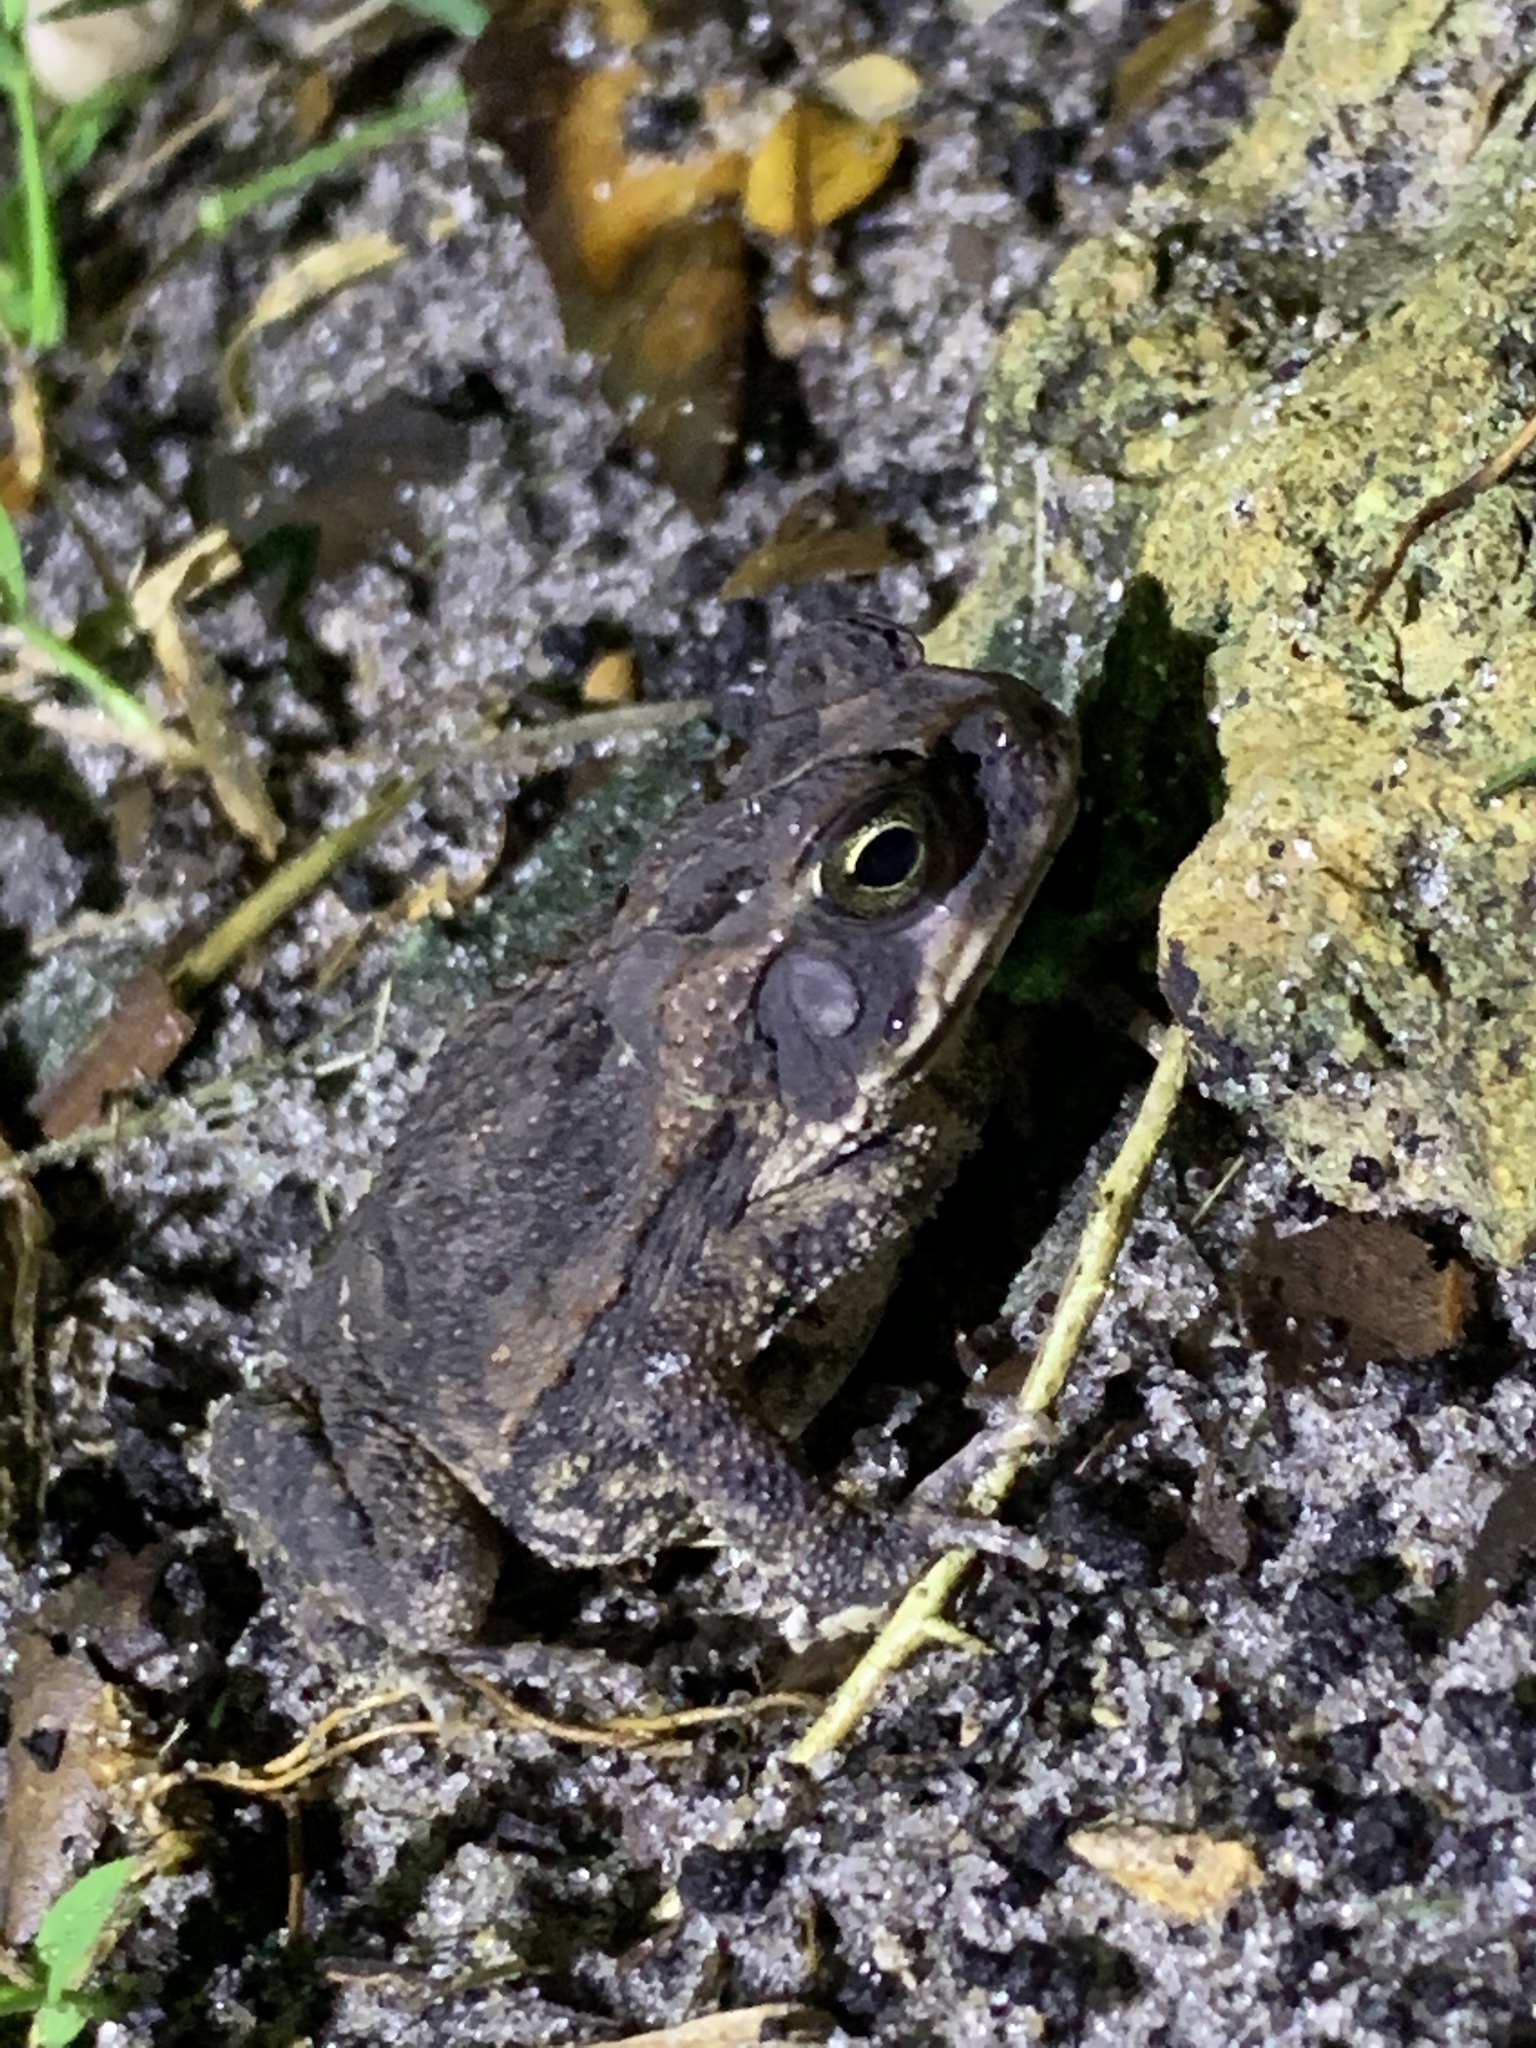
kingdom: Animalia
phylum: Chordata
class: Amphibia
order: Anura
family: Bufonidae
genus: Rhinella
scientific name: Rhinella marina
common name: Cane toad
